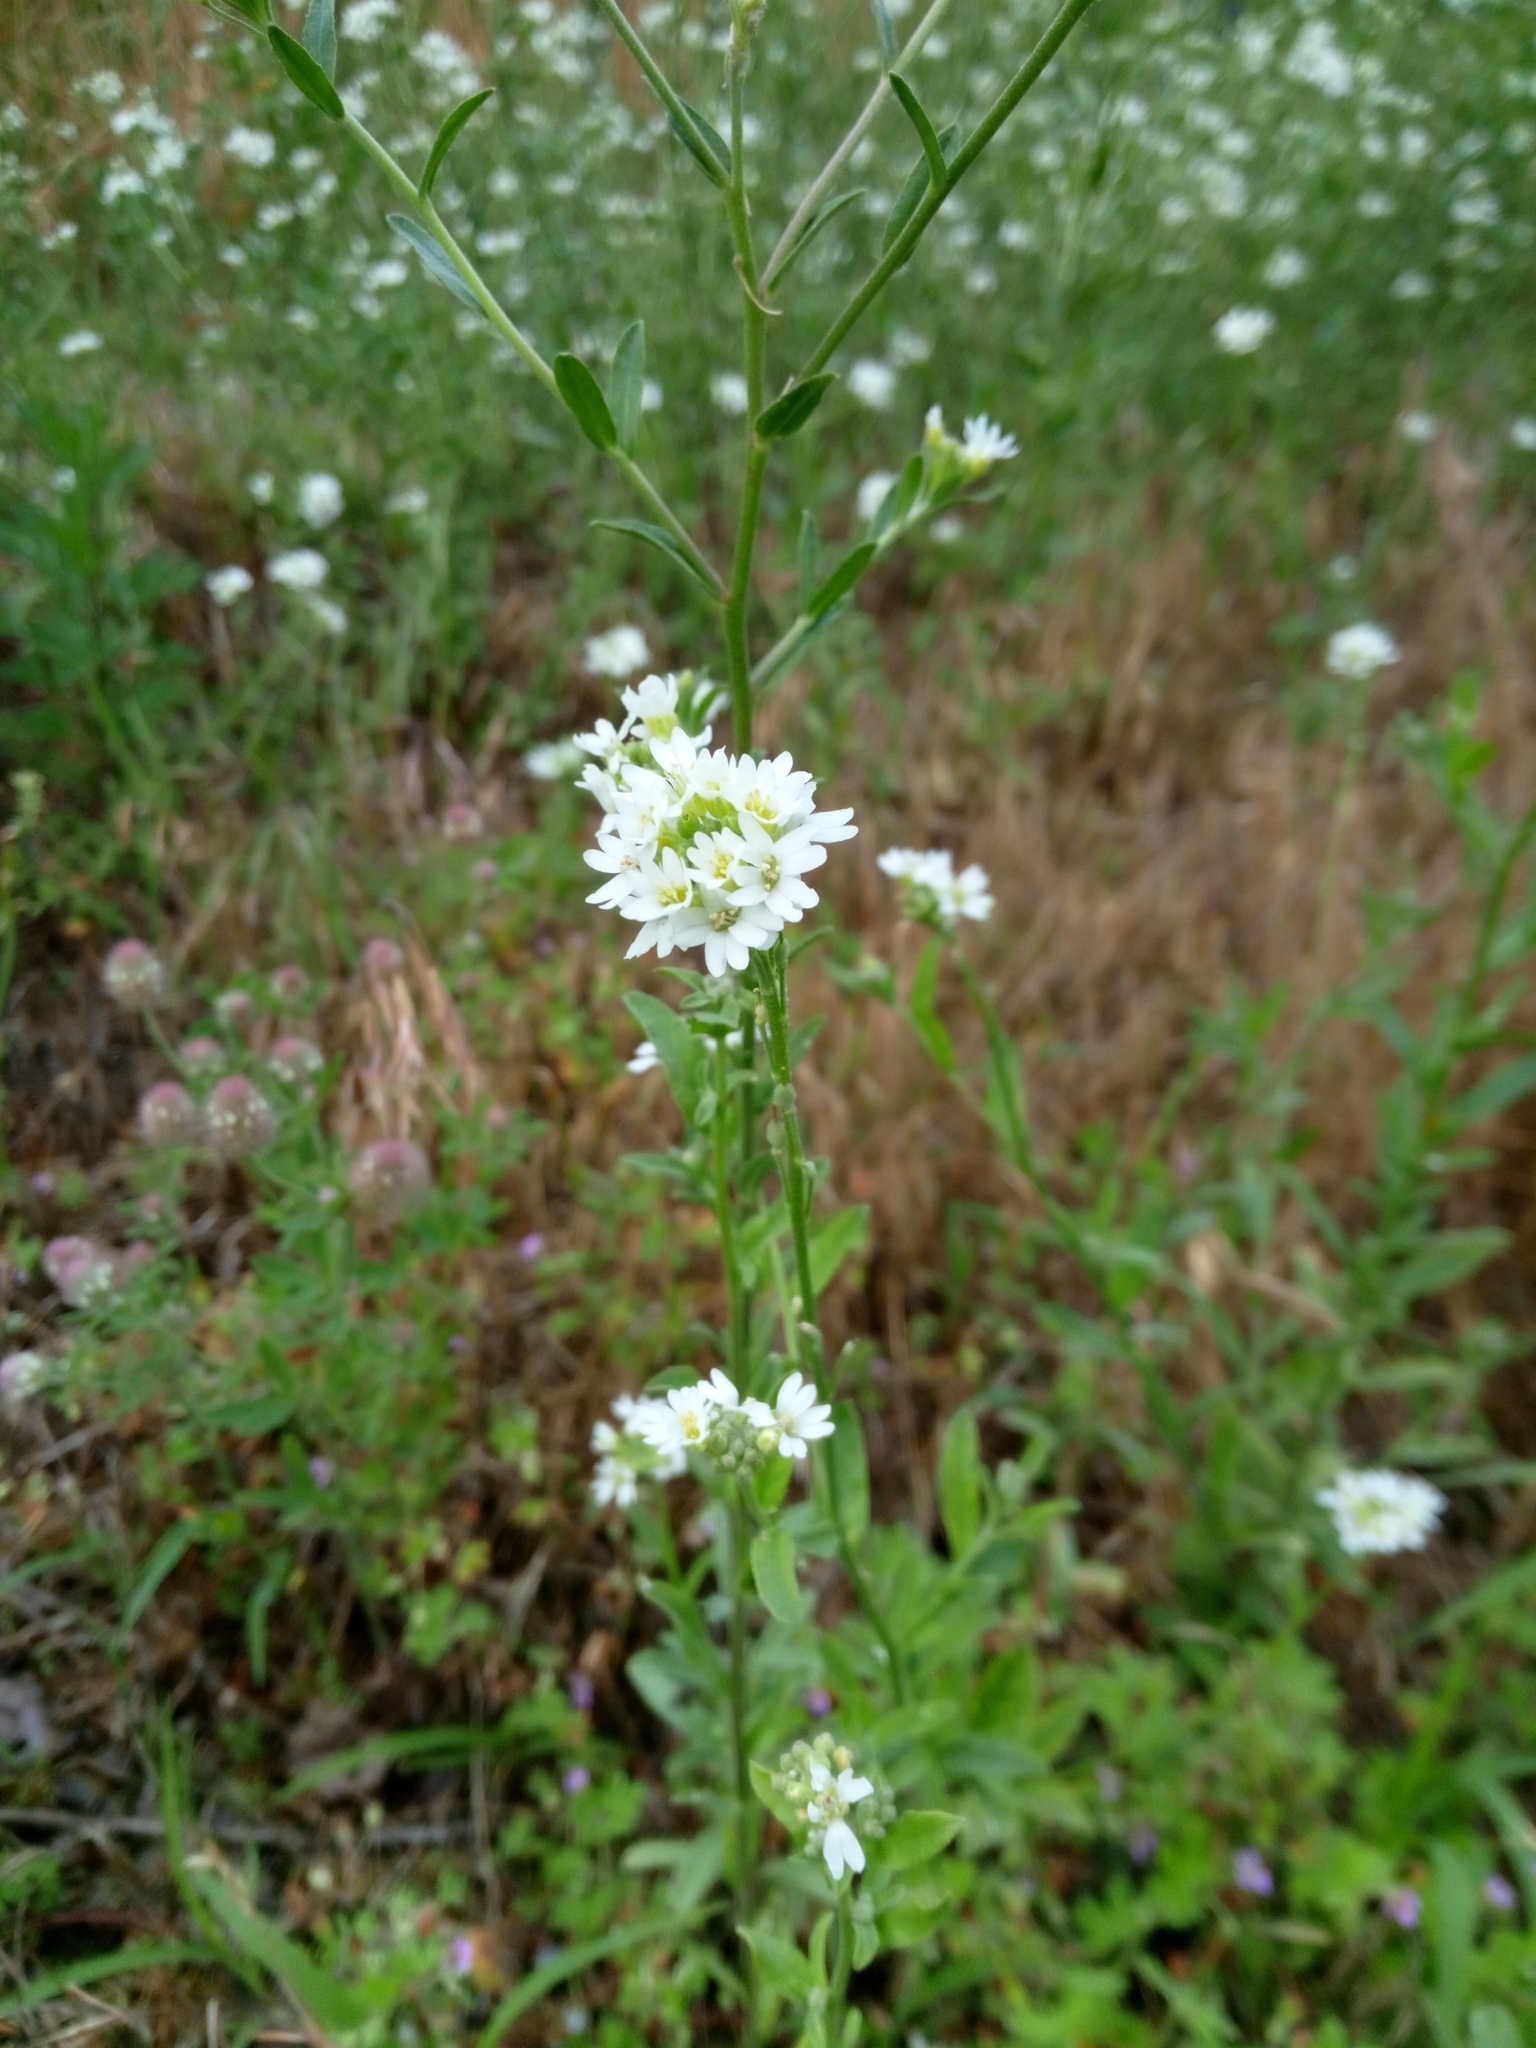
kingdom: Plantae
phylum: Tracheophyta
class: Magnoliopsida
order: Brassicales
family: Brassicaceae
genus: Berteroa
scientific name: Berteroa incana
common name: Hoary alison
